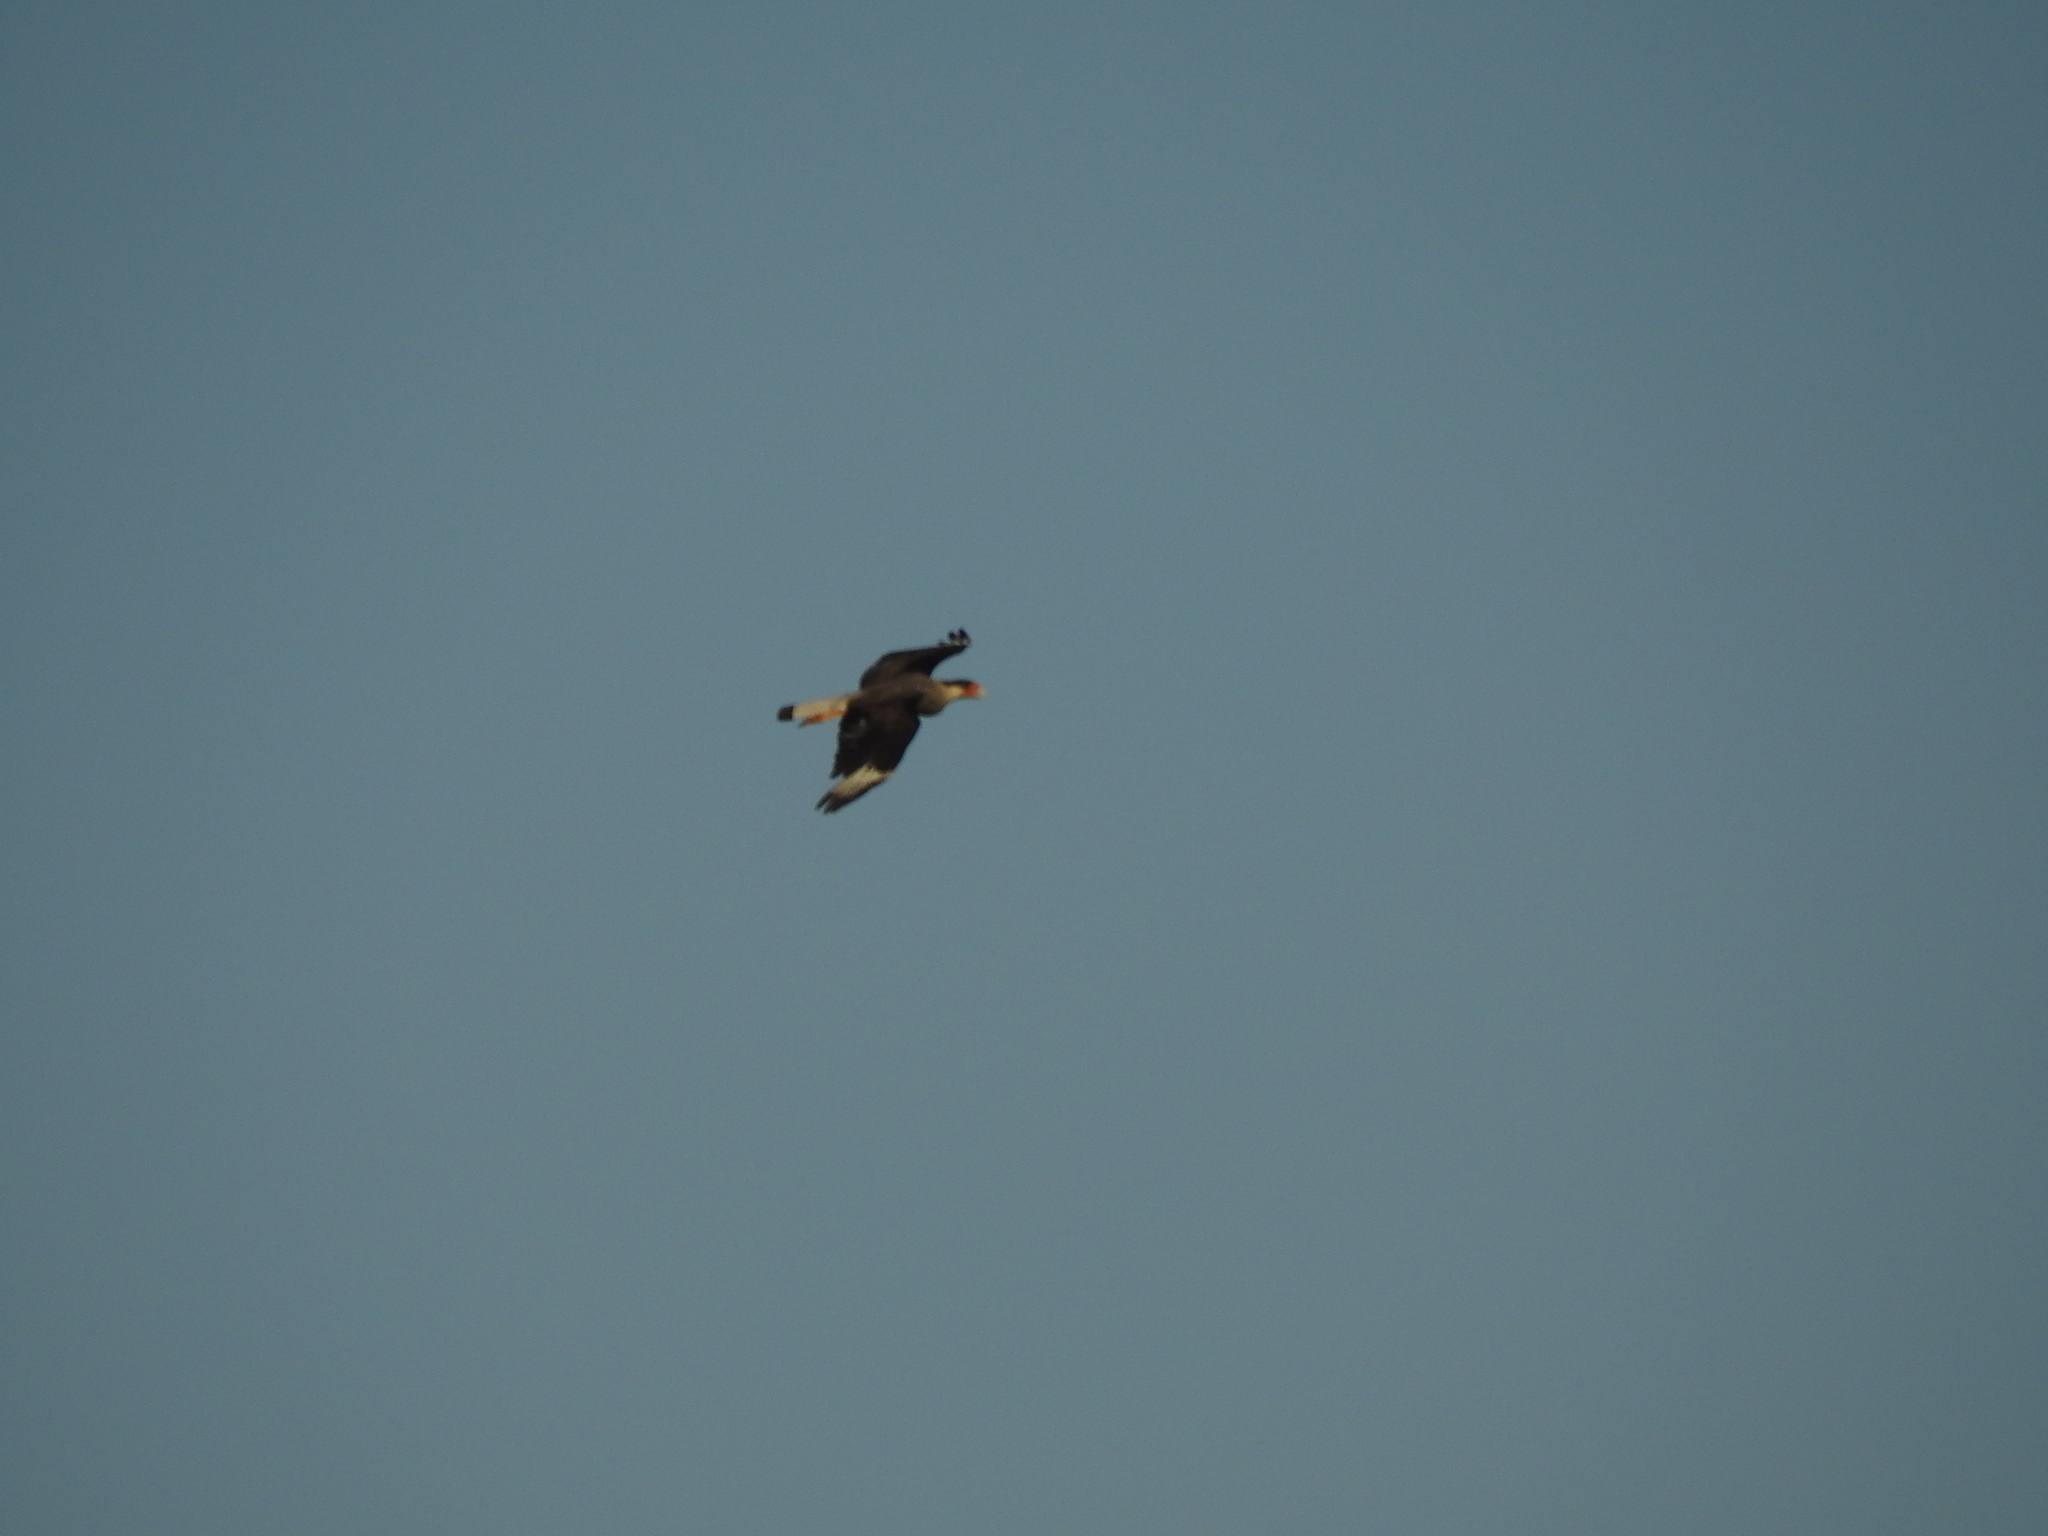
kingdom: Animalia
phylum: Chordata
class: Aves
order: Falconiformes
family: Falconidae
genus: Caracara
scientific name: Caracara plancus
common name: Southern caracara
